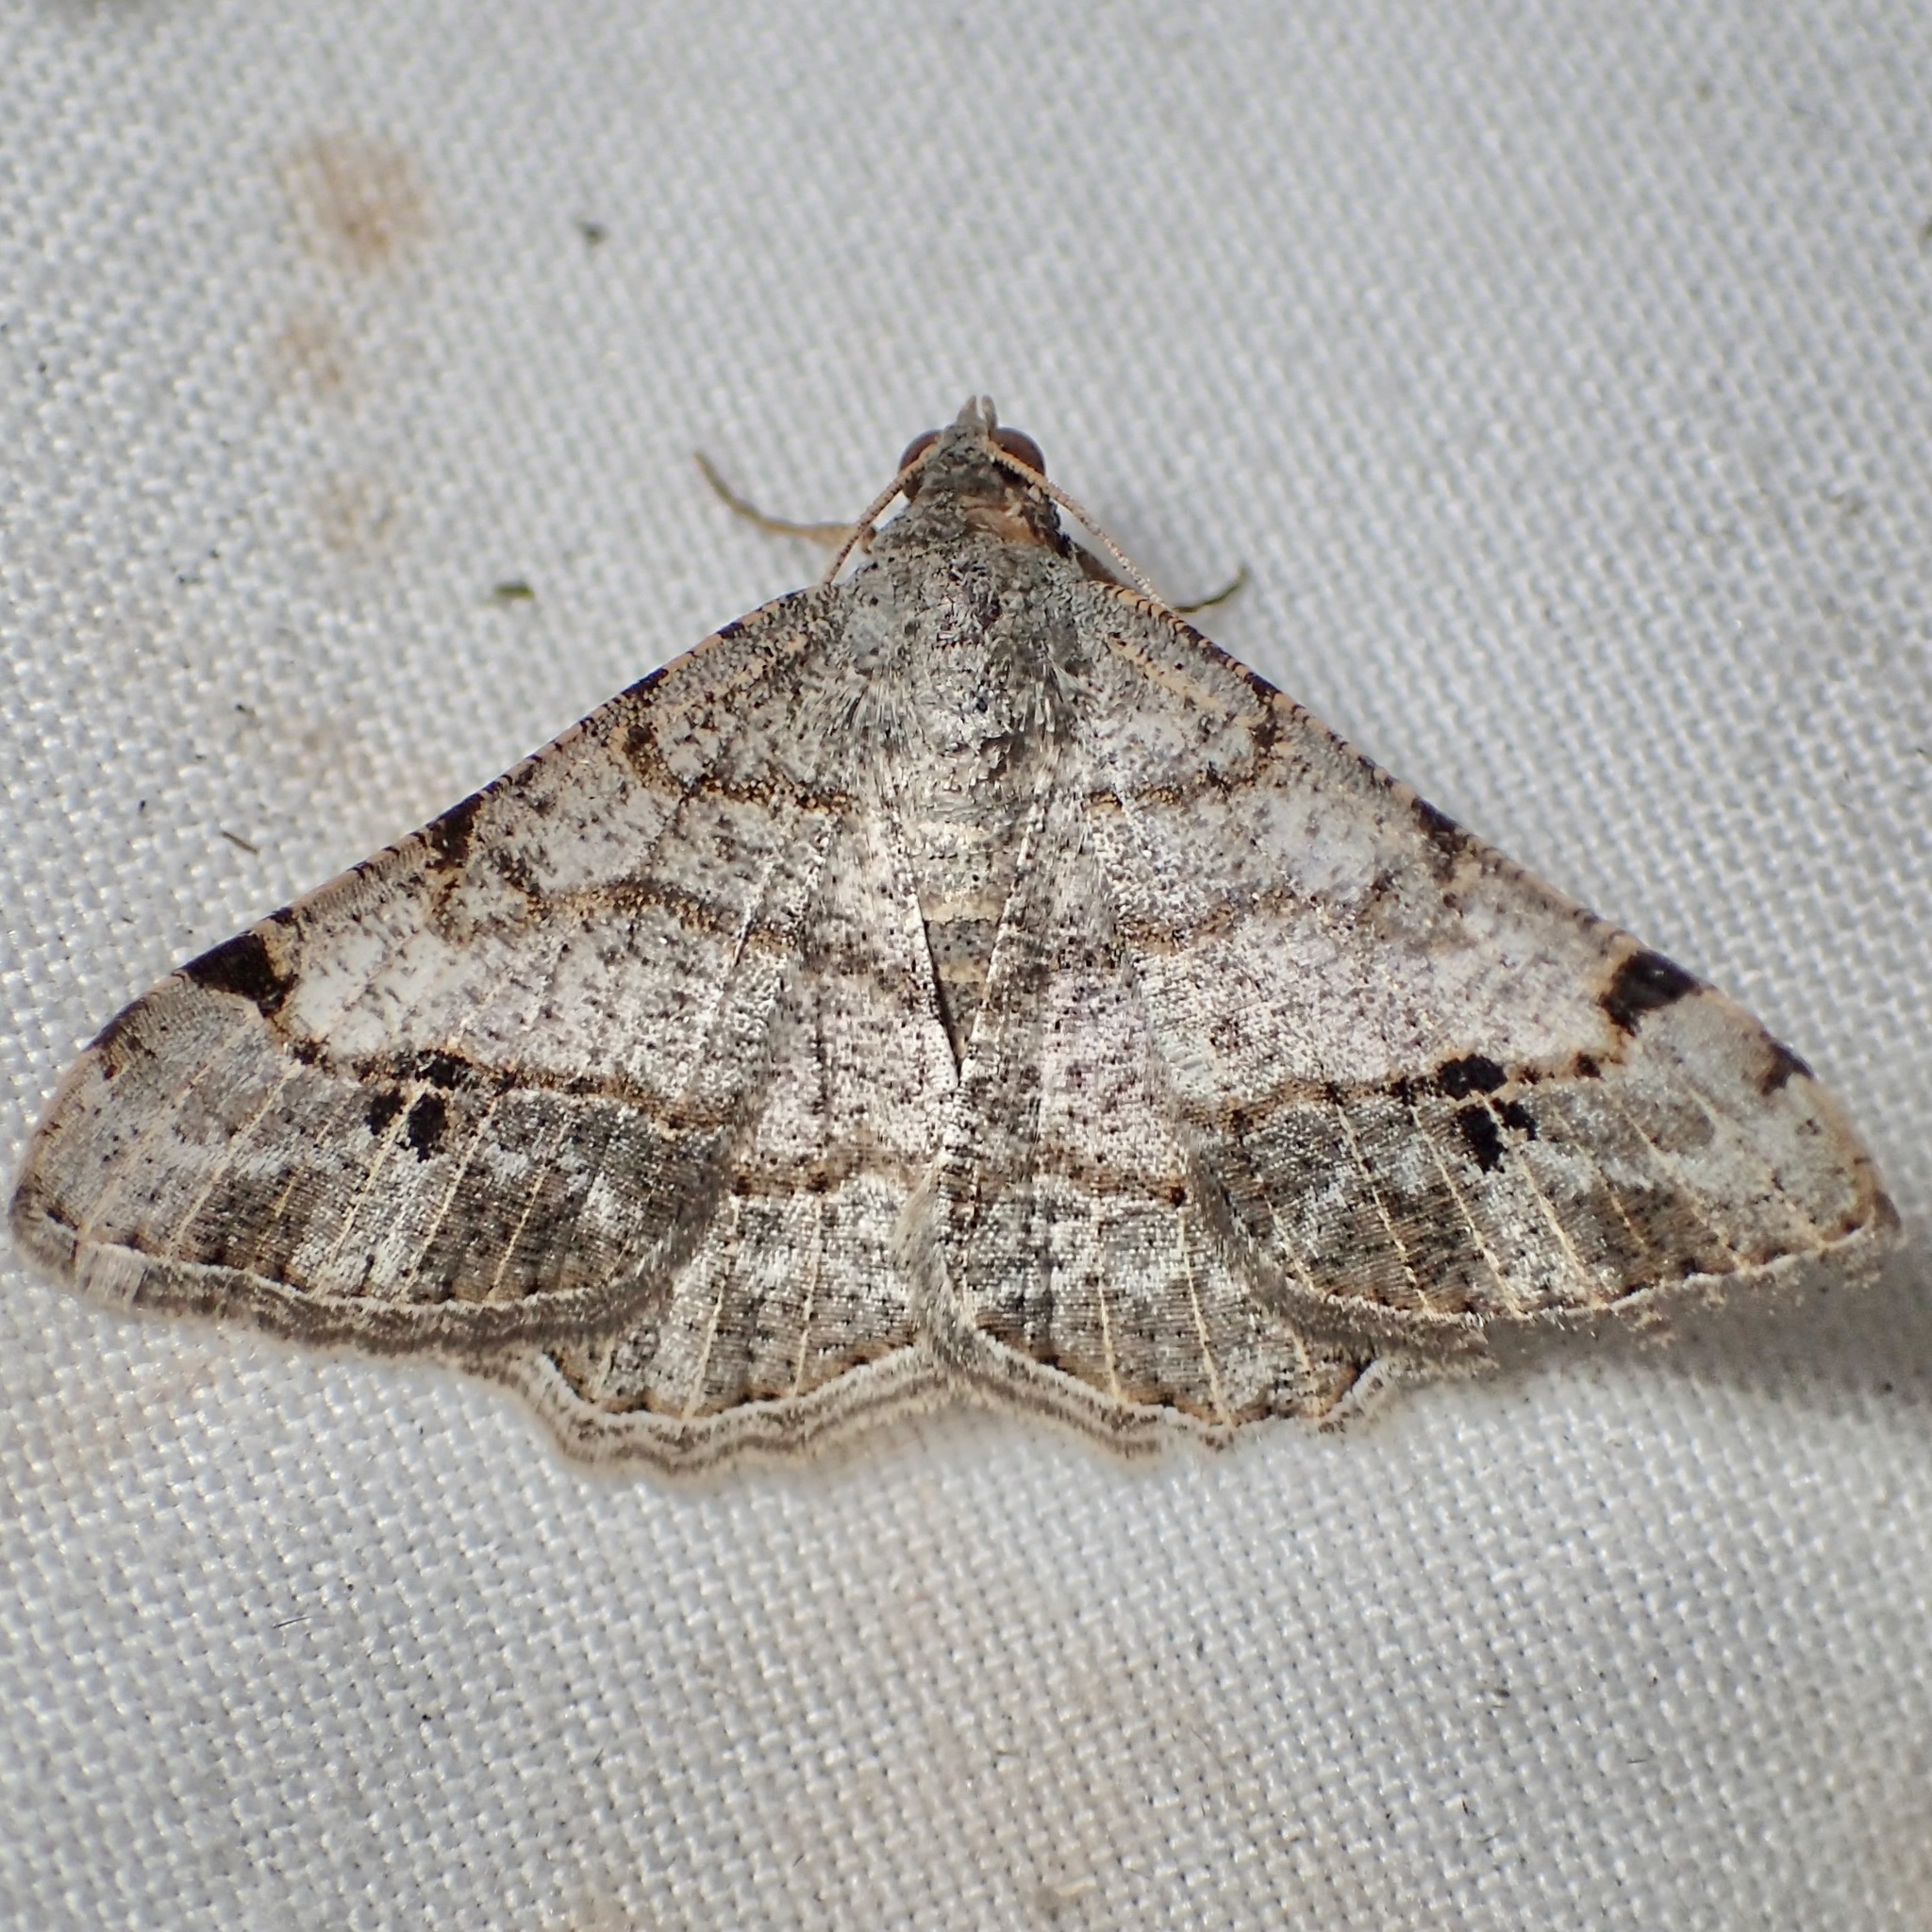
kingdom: Animalia
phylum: Arthropoda
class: Insecta
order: Lepidoptera
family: Geometridae
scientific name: Geometridae
